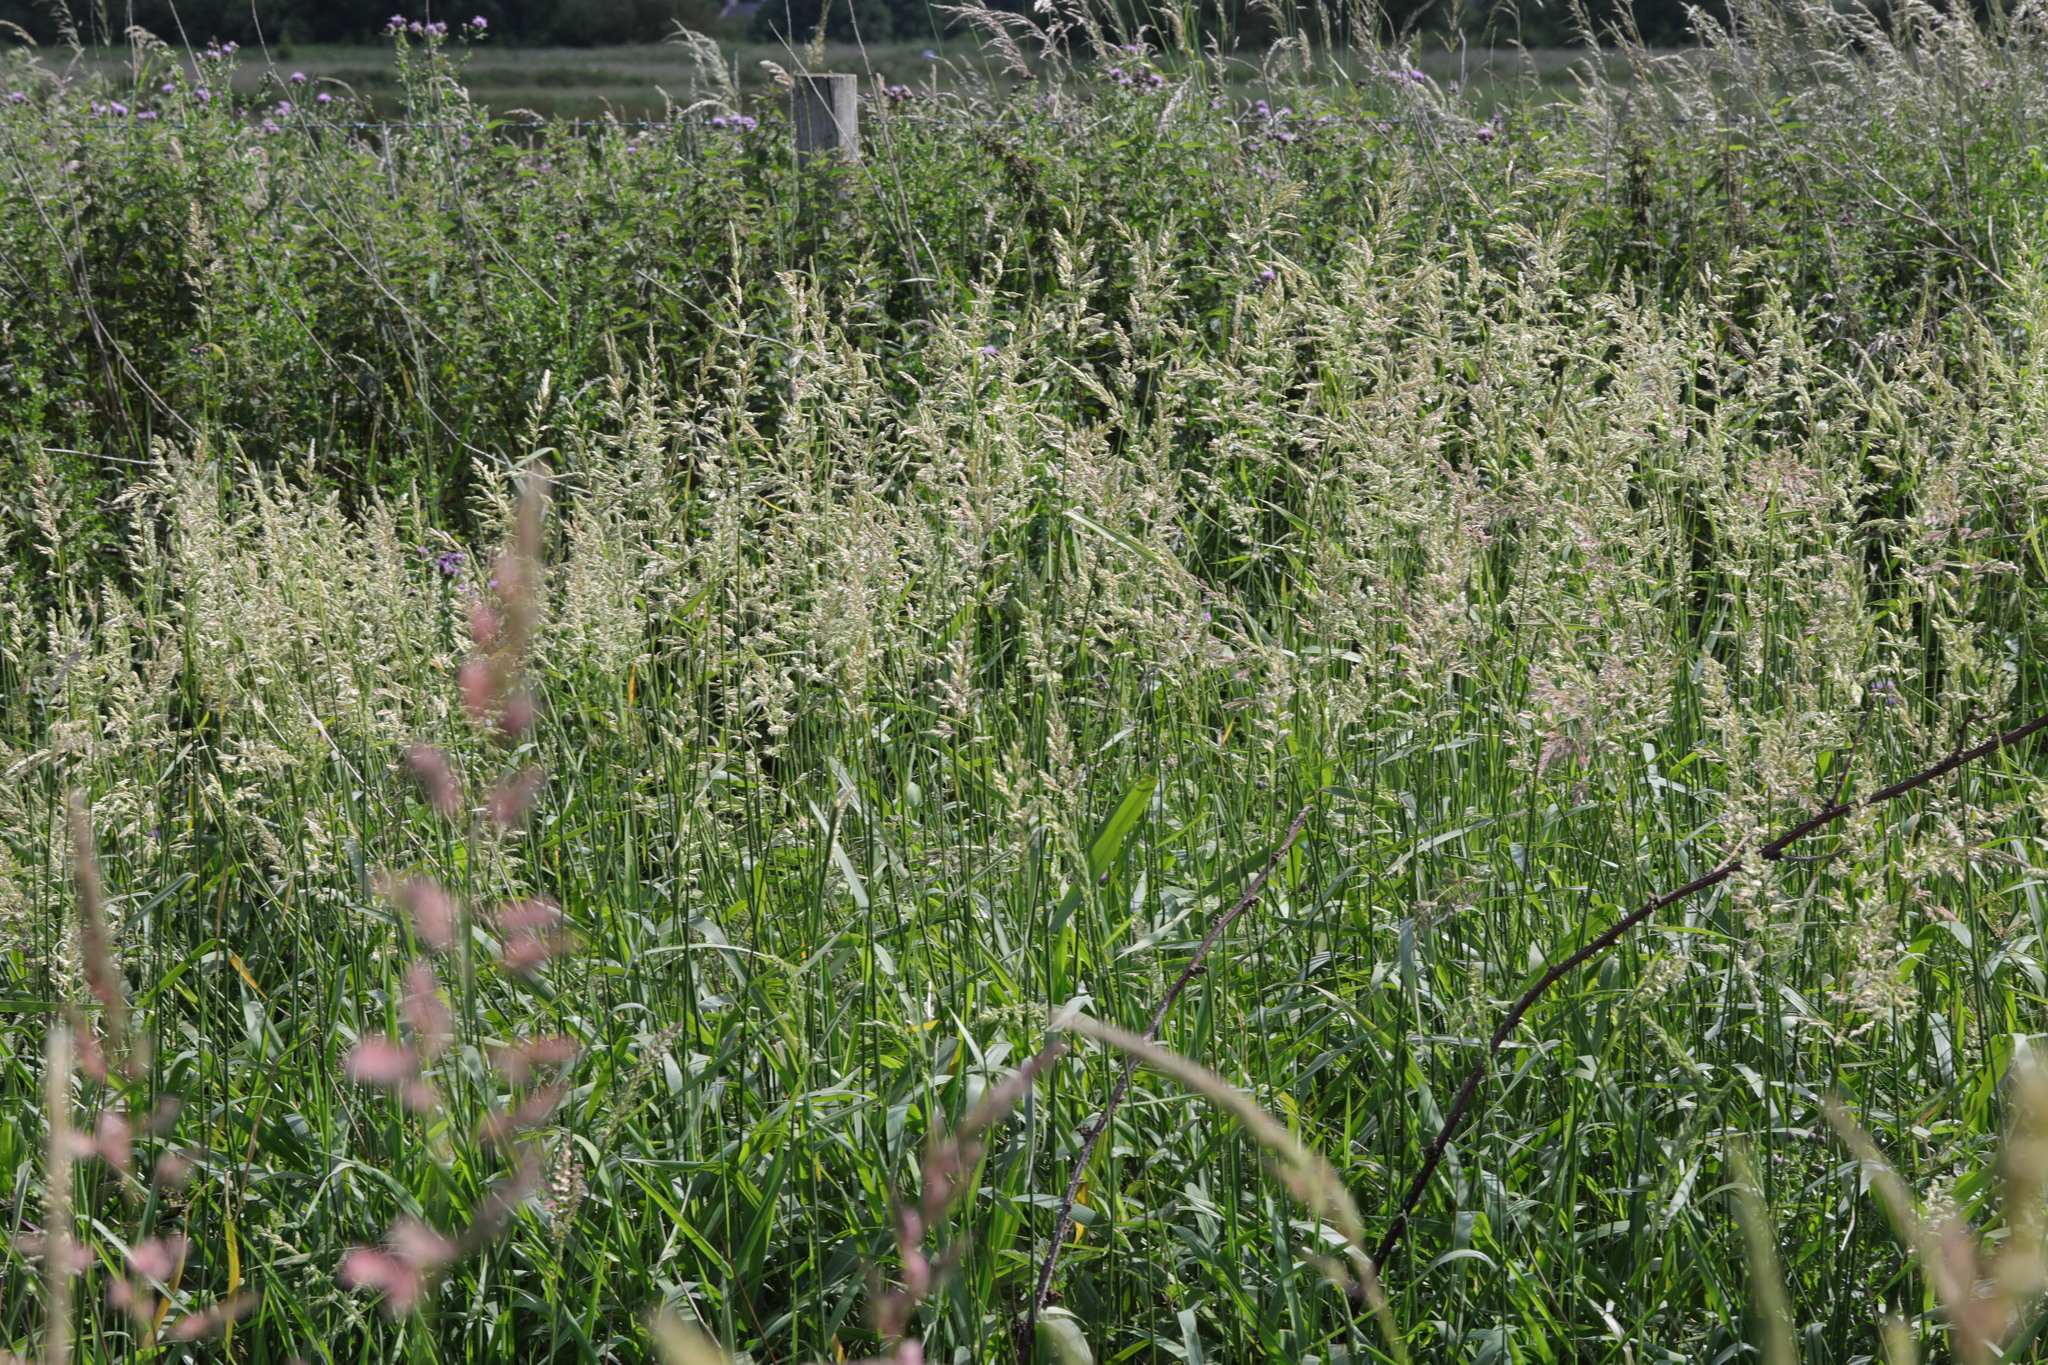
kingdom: Plantae
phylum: Tracheophyta
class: Liliopsida
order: Poales
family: Poaceae
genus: Phalaris
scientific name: Phalaris arundinacea
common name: Reed canary-grass
